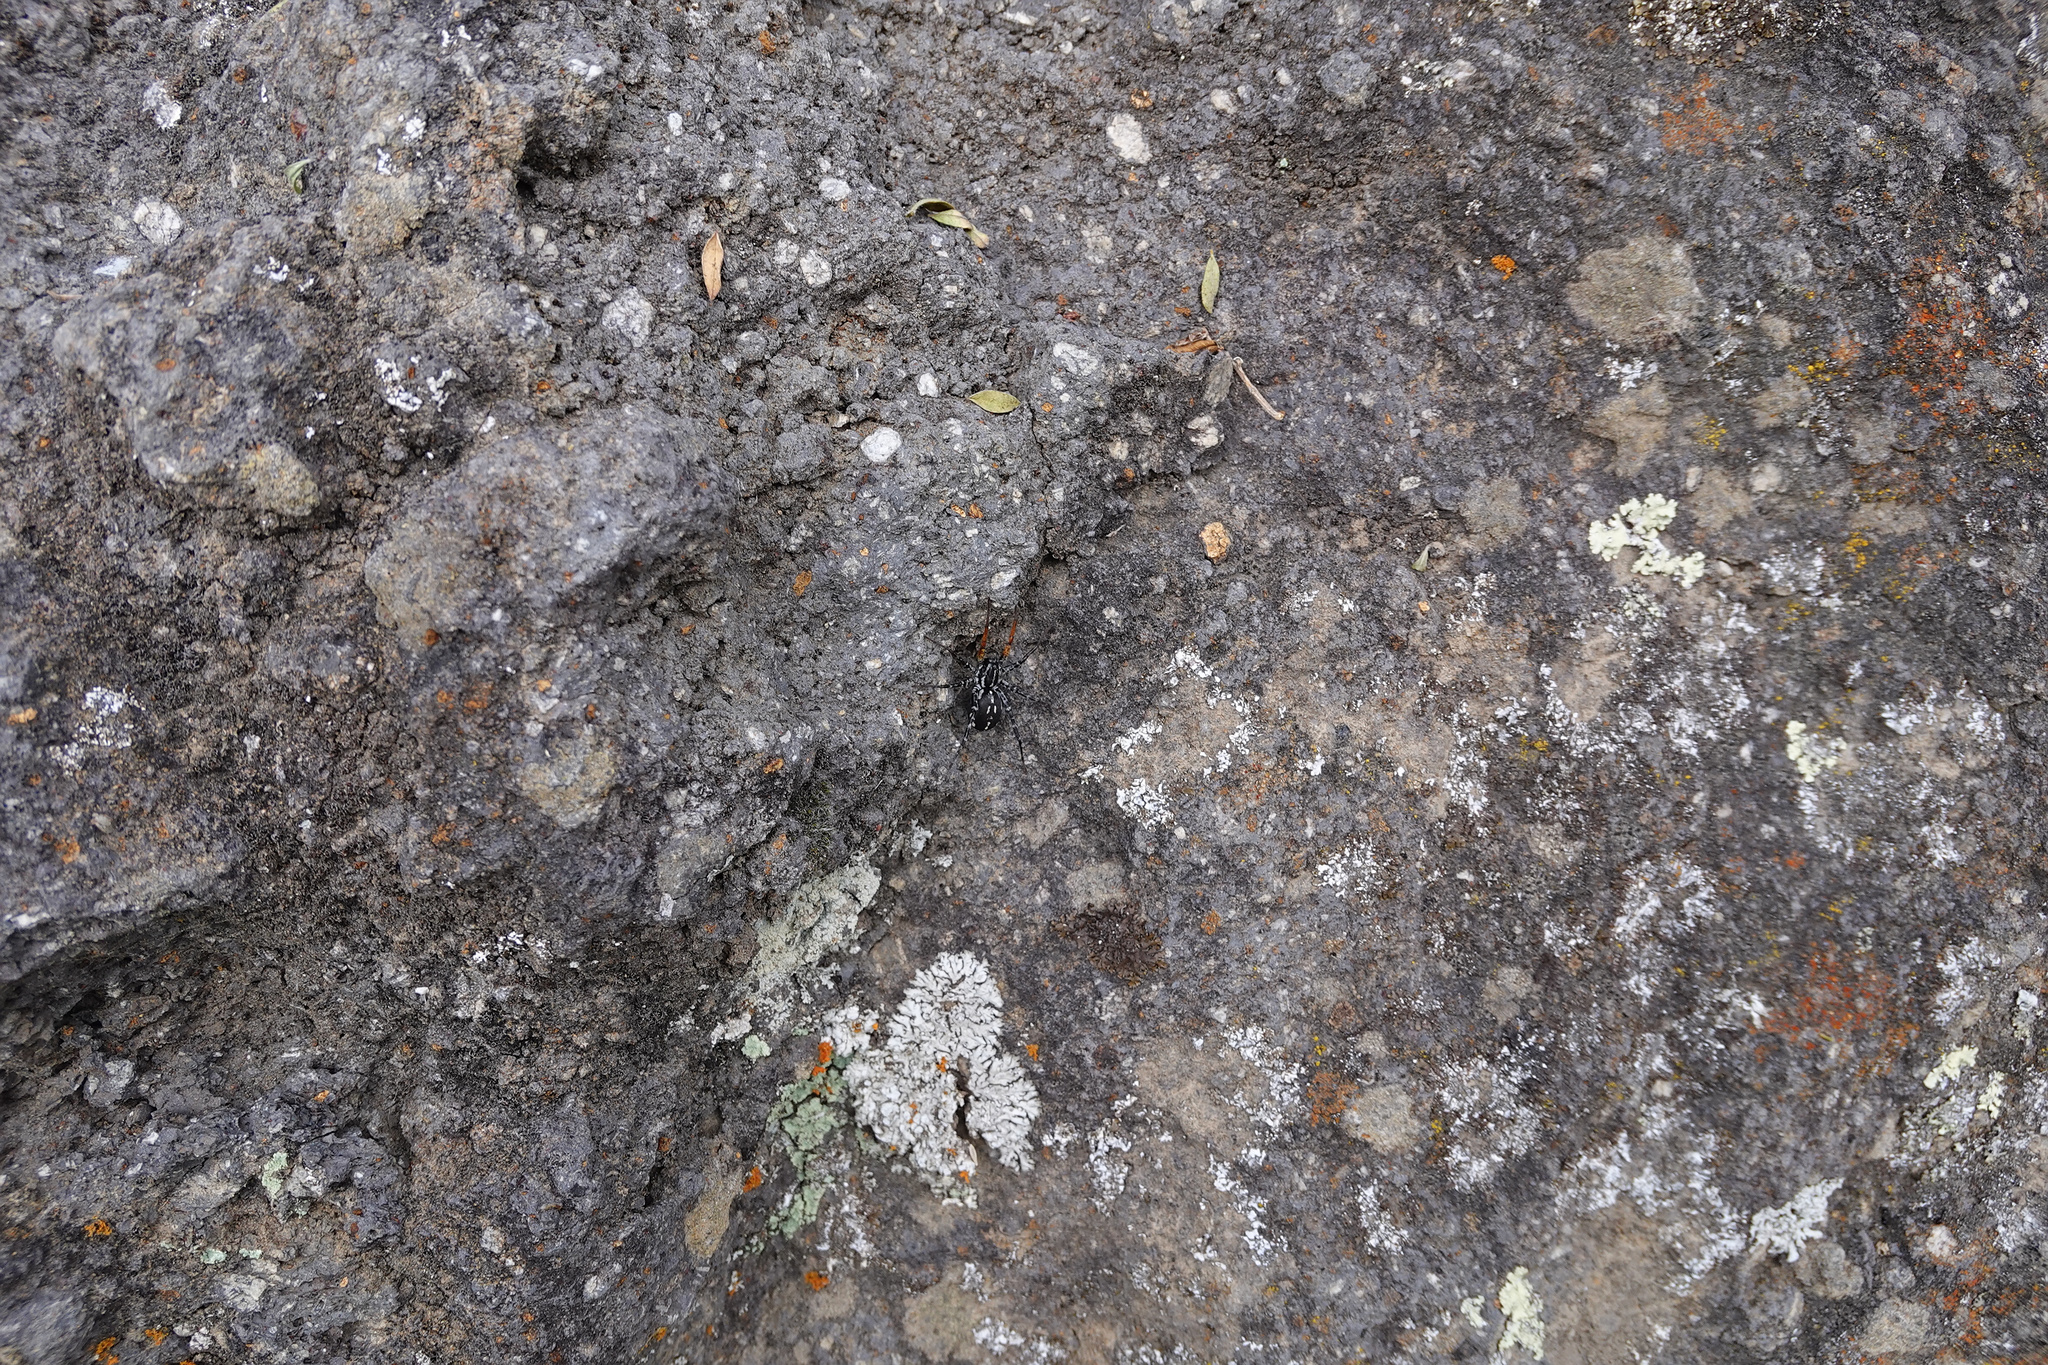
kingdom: Animalia
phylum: Arthropoda
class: Arachnida
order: Araneae
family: Corinnidae
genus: Nyssus
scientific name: Nyssus coloripes
